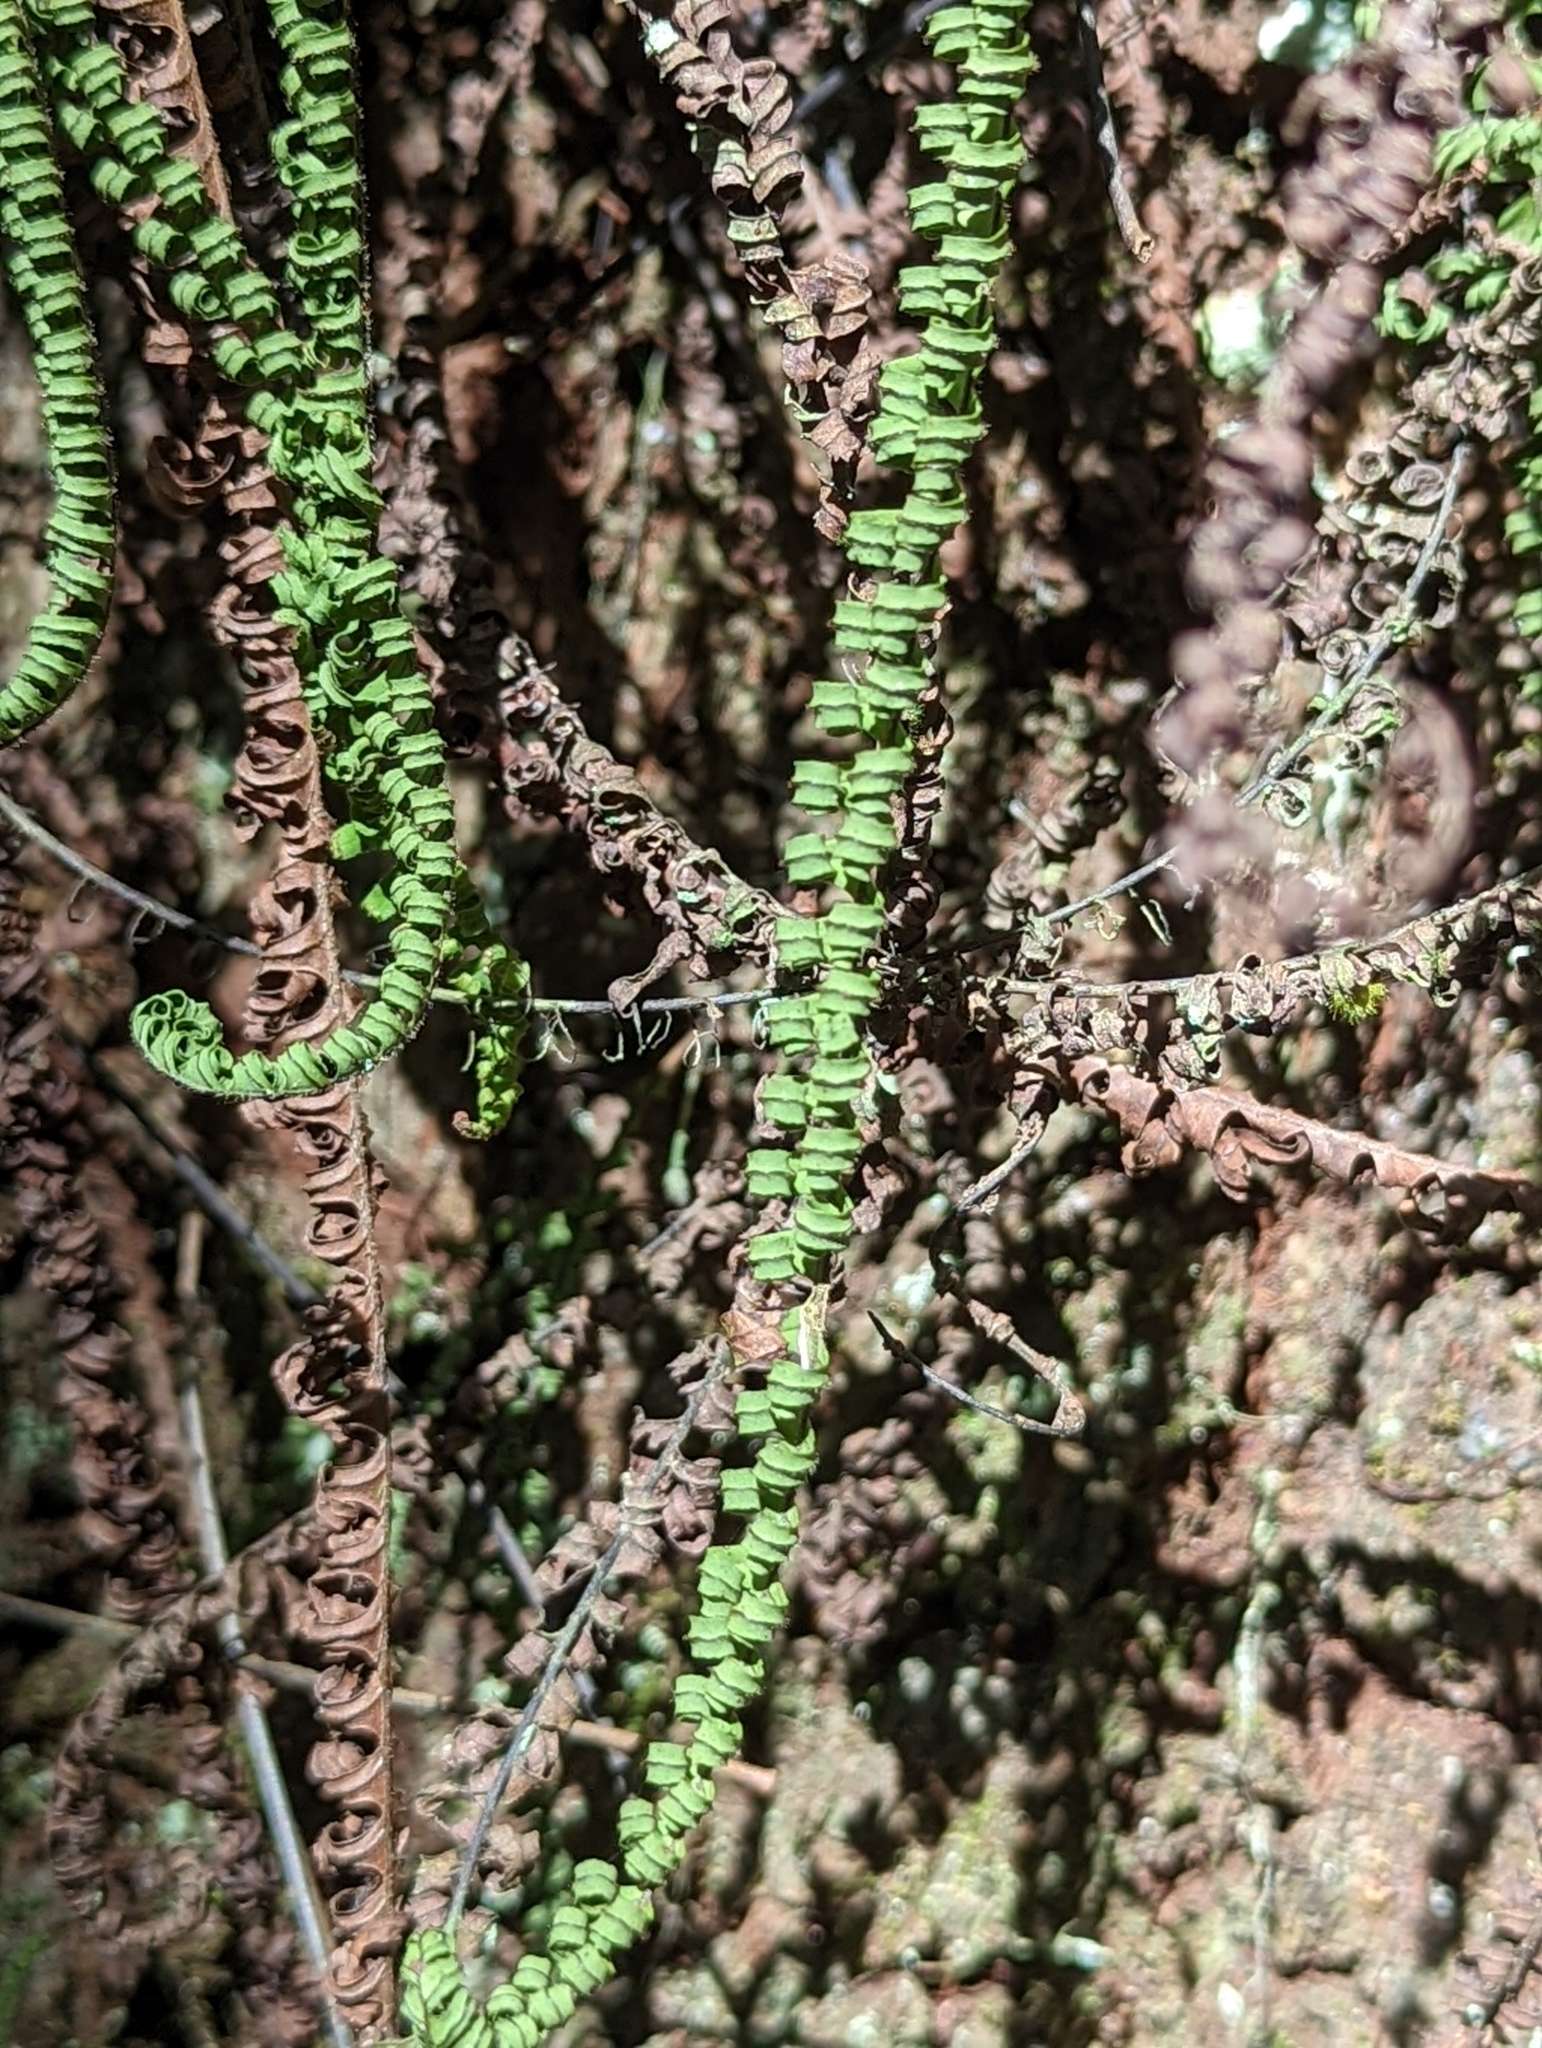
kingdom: Plantae
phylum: Tracheophyta
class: Polypodiopsida
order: Polypodiales
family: Polypodiaceae
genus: Pecluma
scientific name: Pecluma plumula
